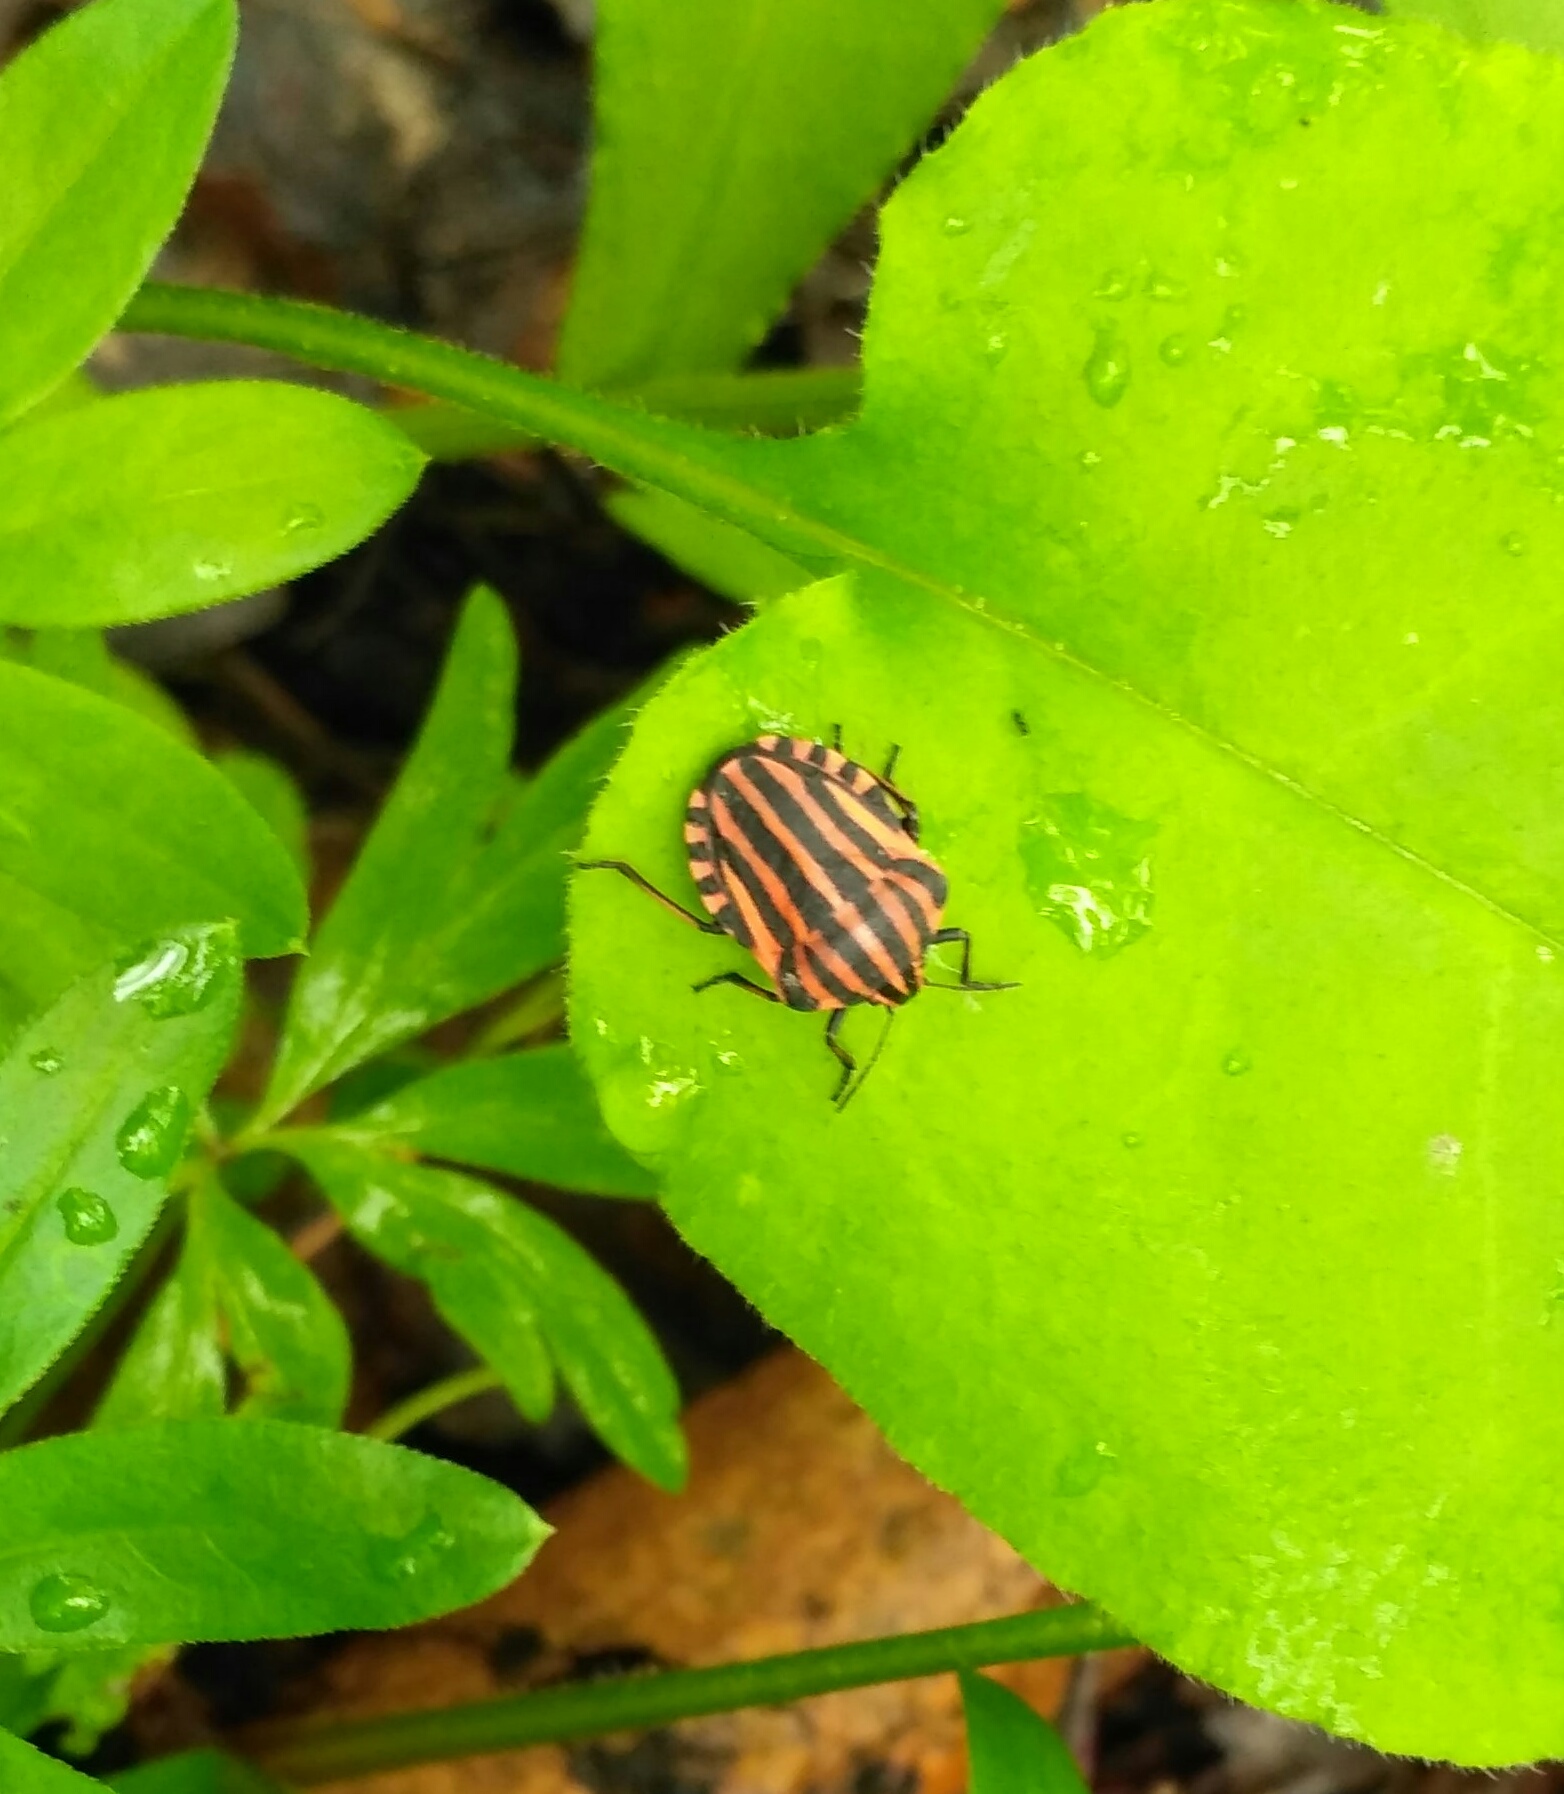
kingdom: Animalia
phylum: Arthropoda
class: Insecta
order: Hemiptera
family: Pentatomidae
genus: Graphosoma
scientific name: Graphosoma italicum
